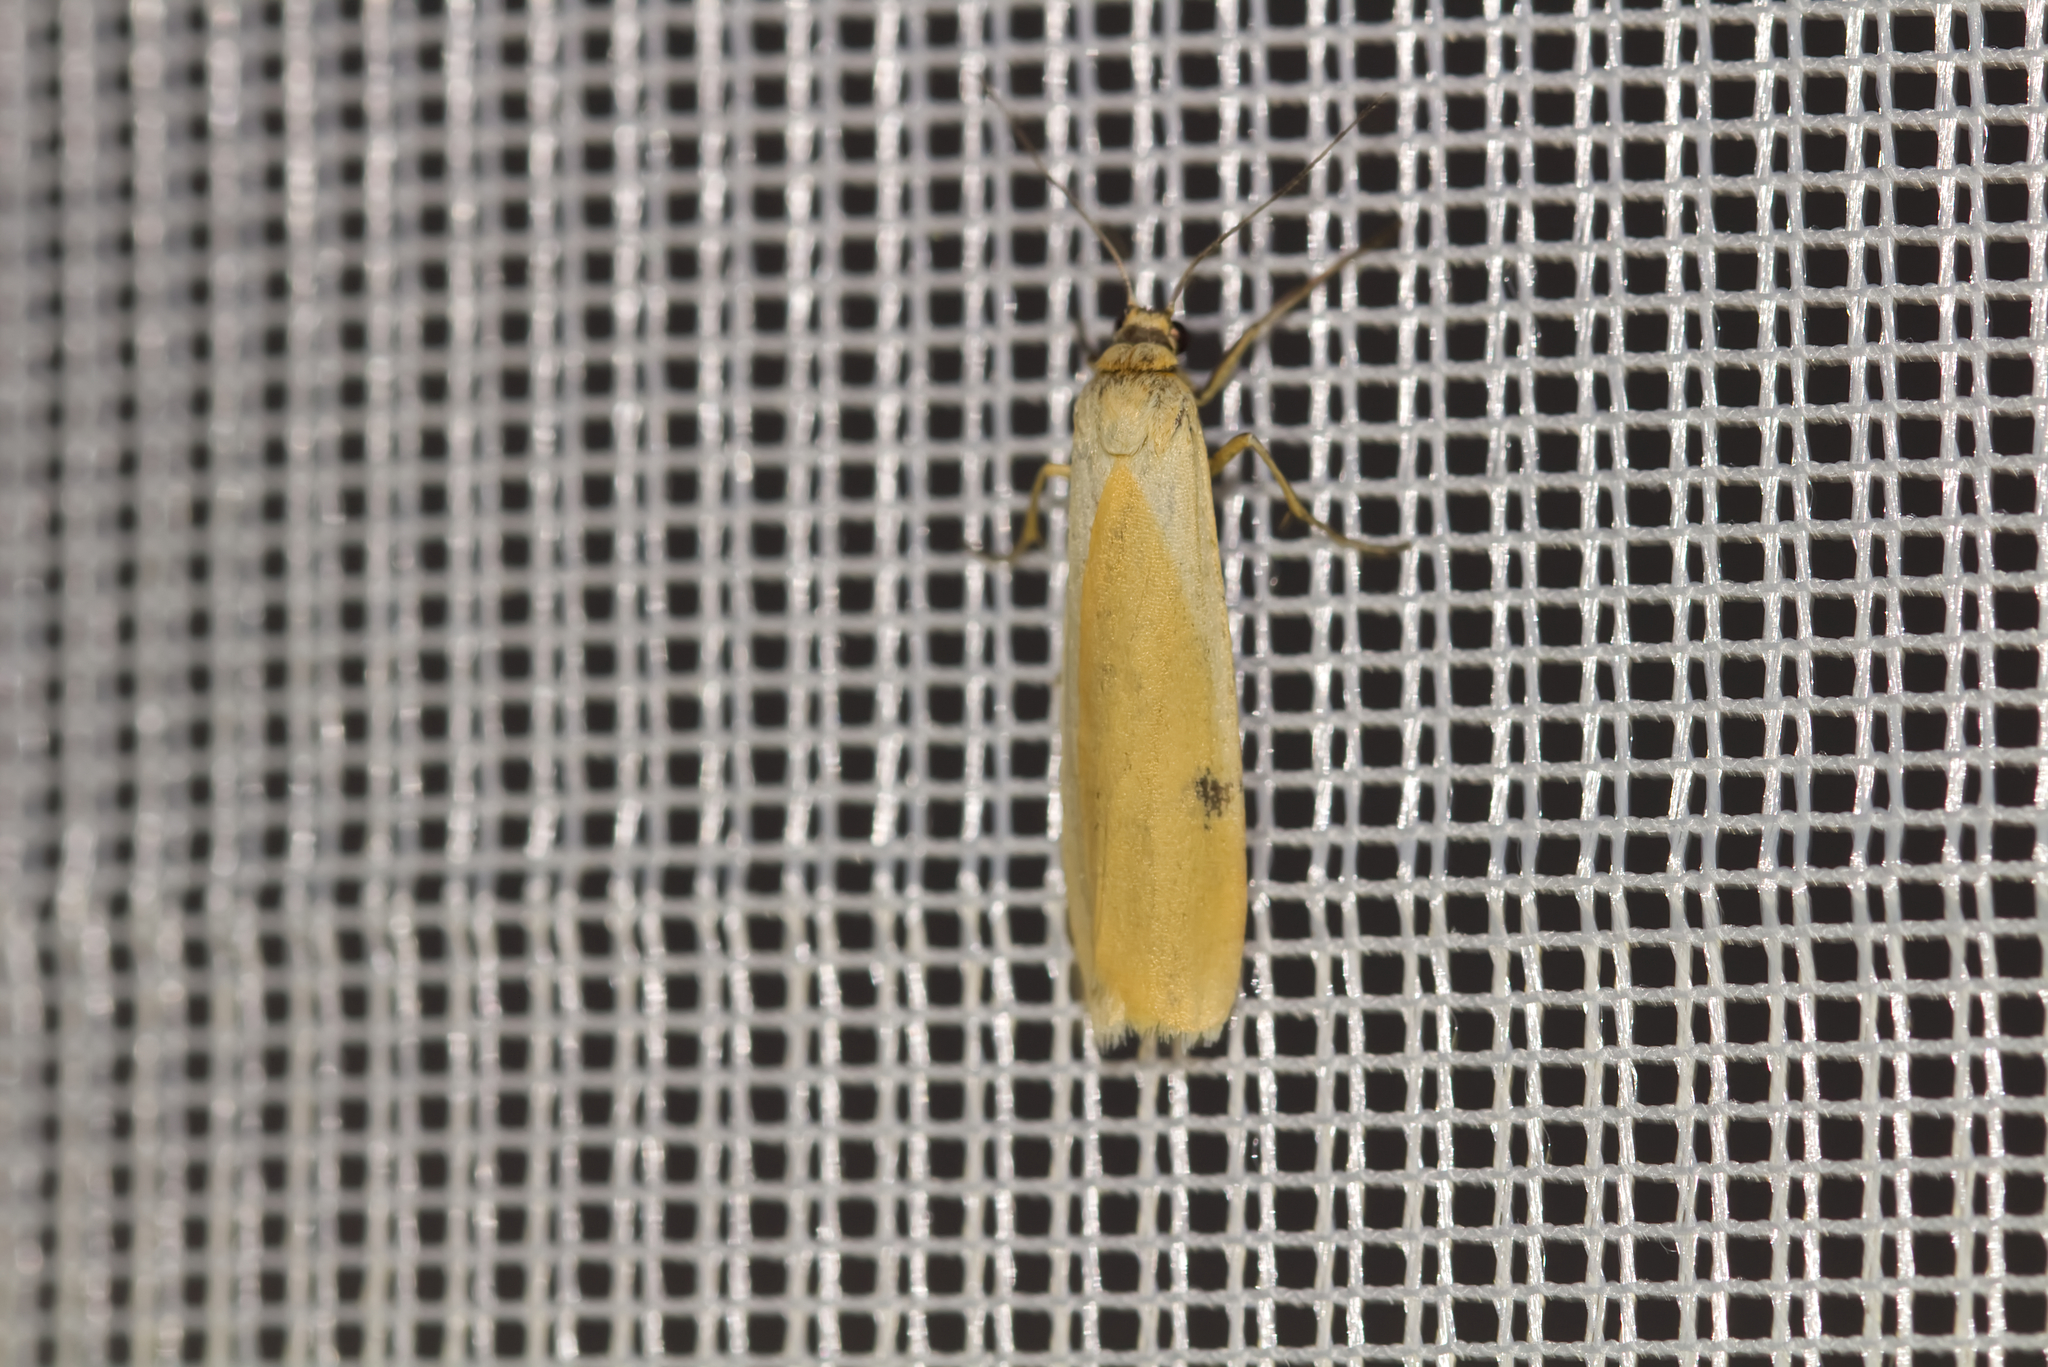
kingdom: Animalia
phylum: Arthropoda
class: Insecta
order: Lepidoptera
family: Erebidae
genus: Lithosia
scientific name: Lithosia quadra
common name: Four-spotted footman
